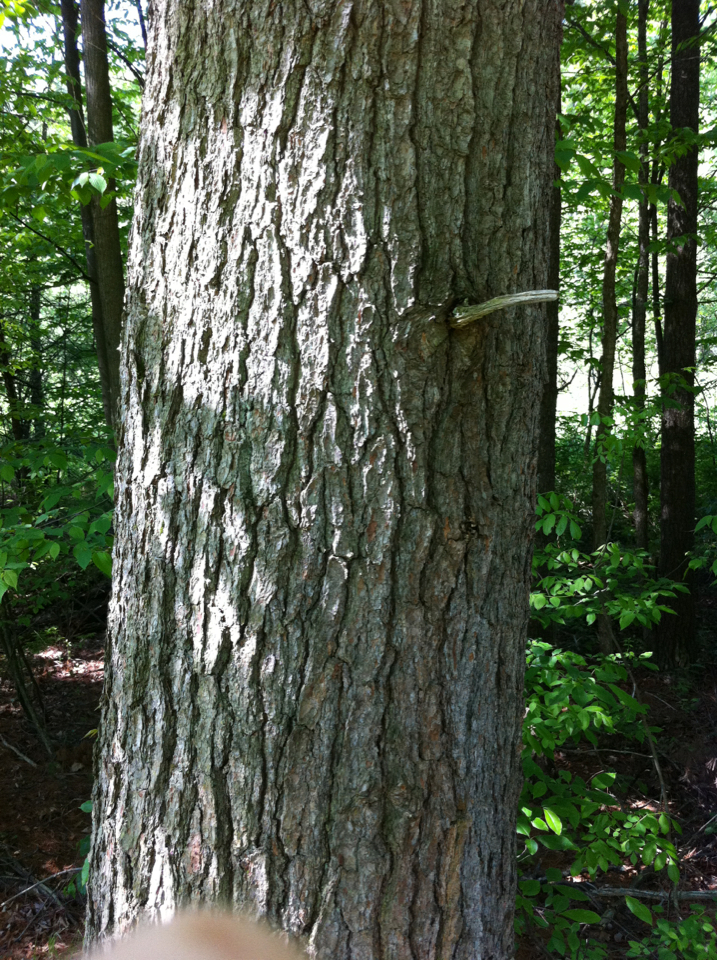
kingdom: Plantae
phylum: Tracheophyta
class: Pinopsida
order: Pinales
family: Pinaceae
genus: Pinus
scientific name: Pinus strobus
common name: Weymouth pine
